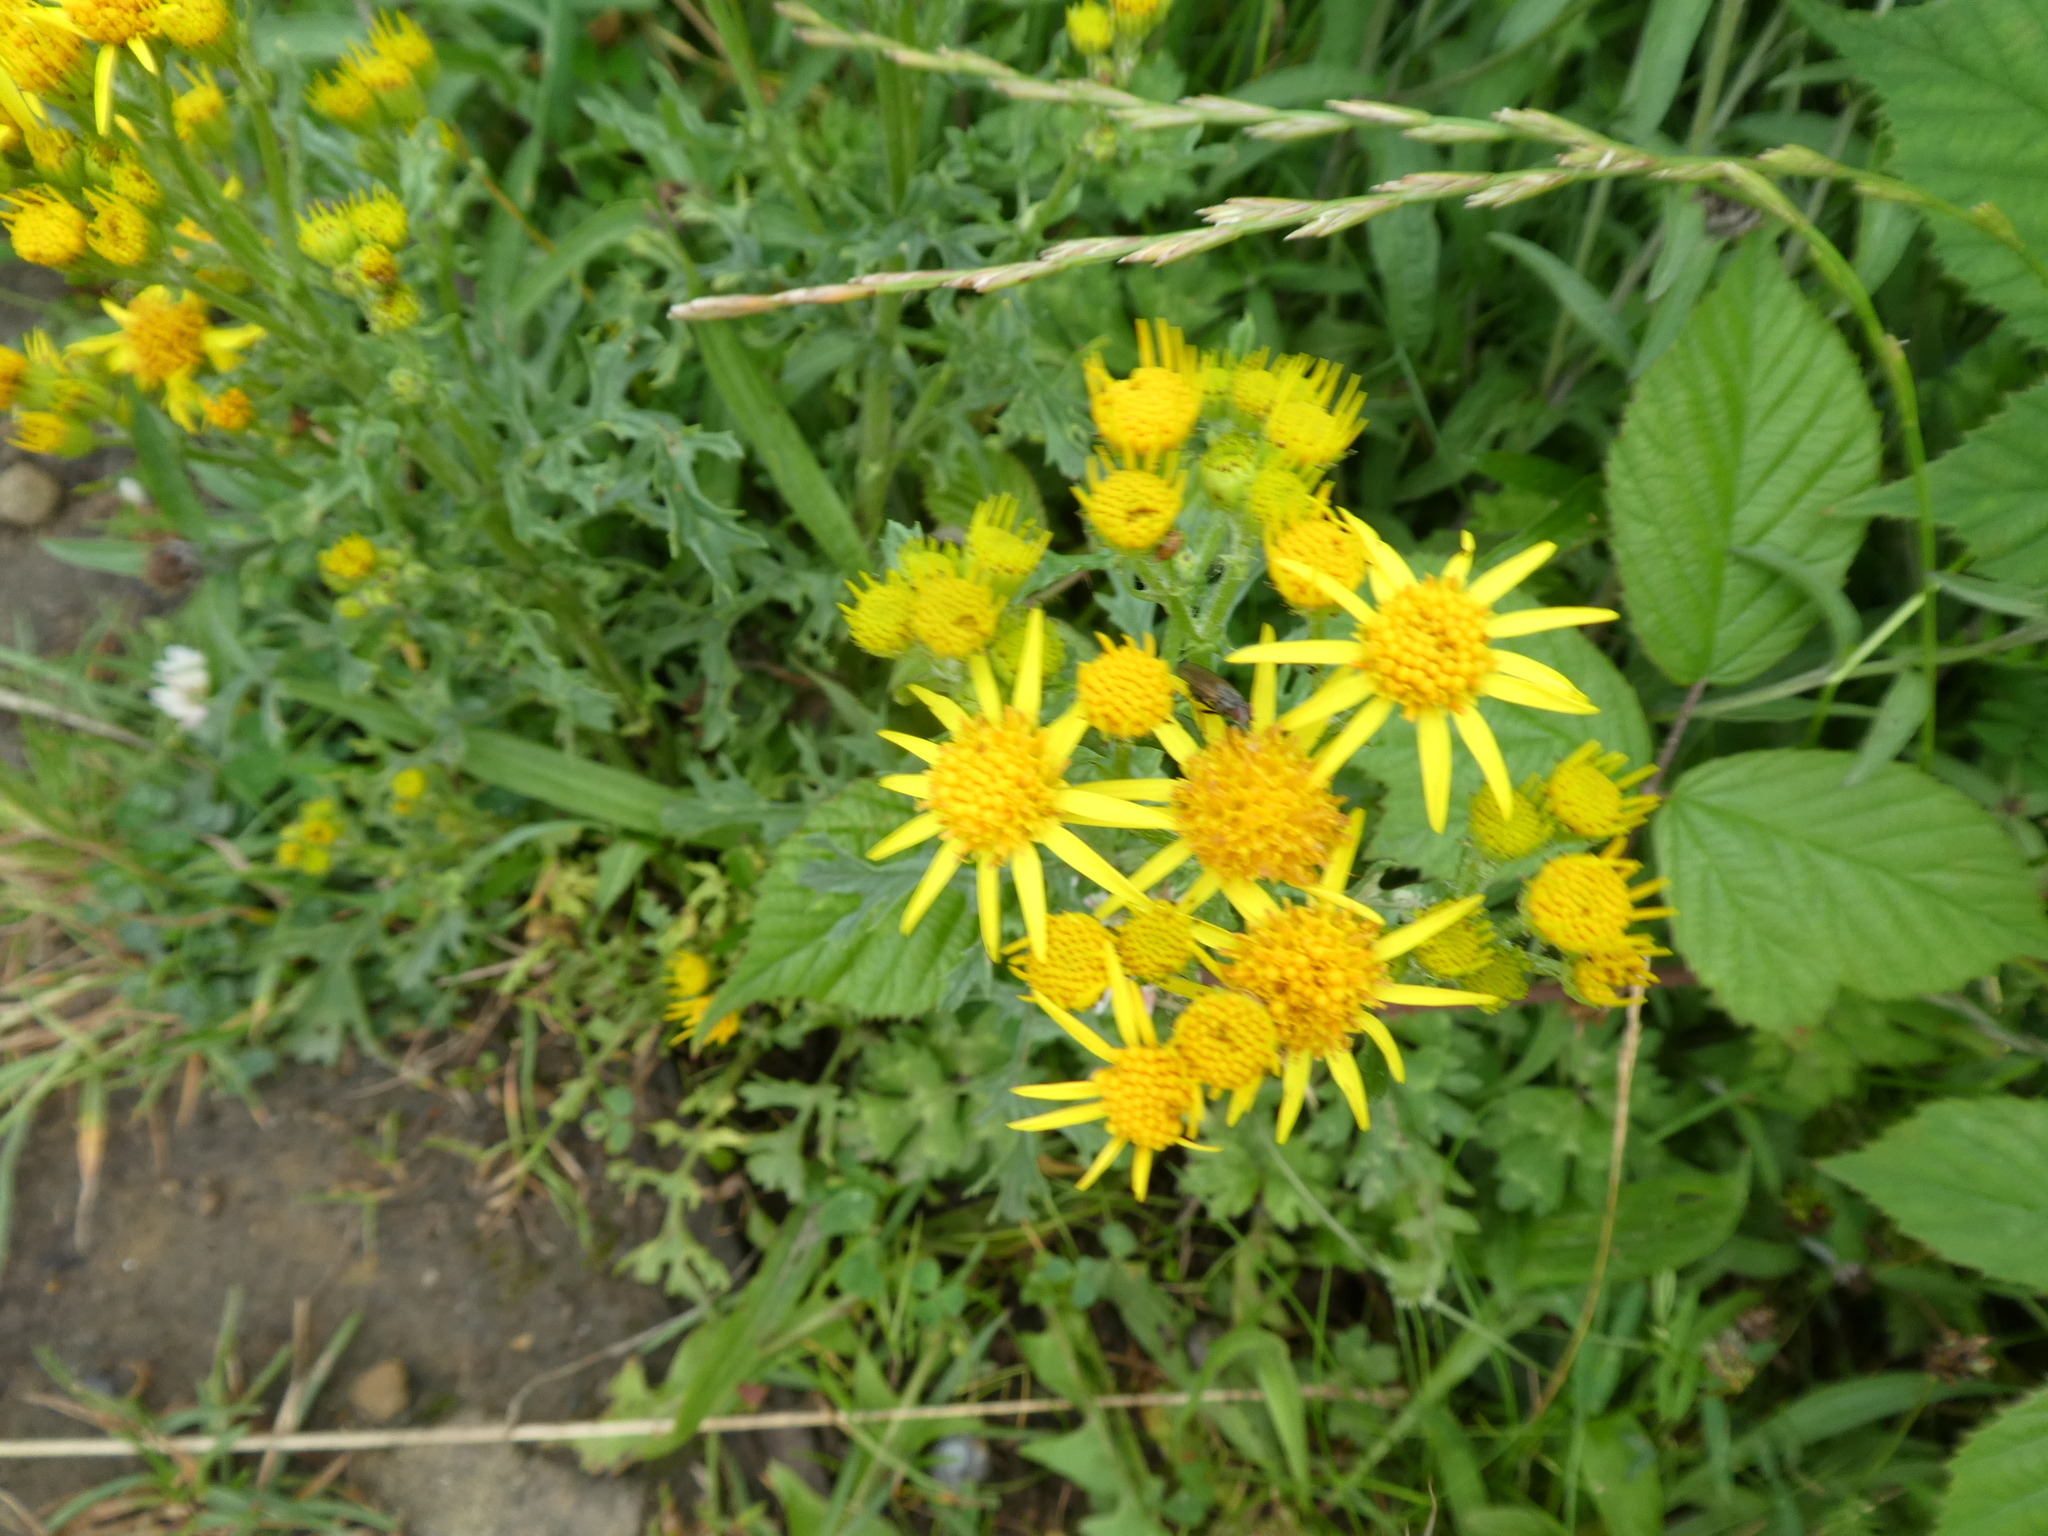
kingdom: Plantae
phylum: Tracheophyta
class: Magnoliopsida
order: Asterales
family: Asteraceae
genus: Jacobaea
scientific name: Jacobaea vulgaris
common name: Stinking willie
